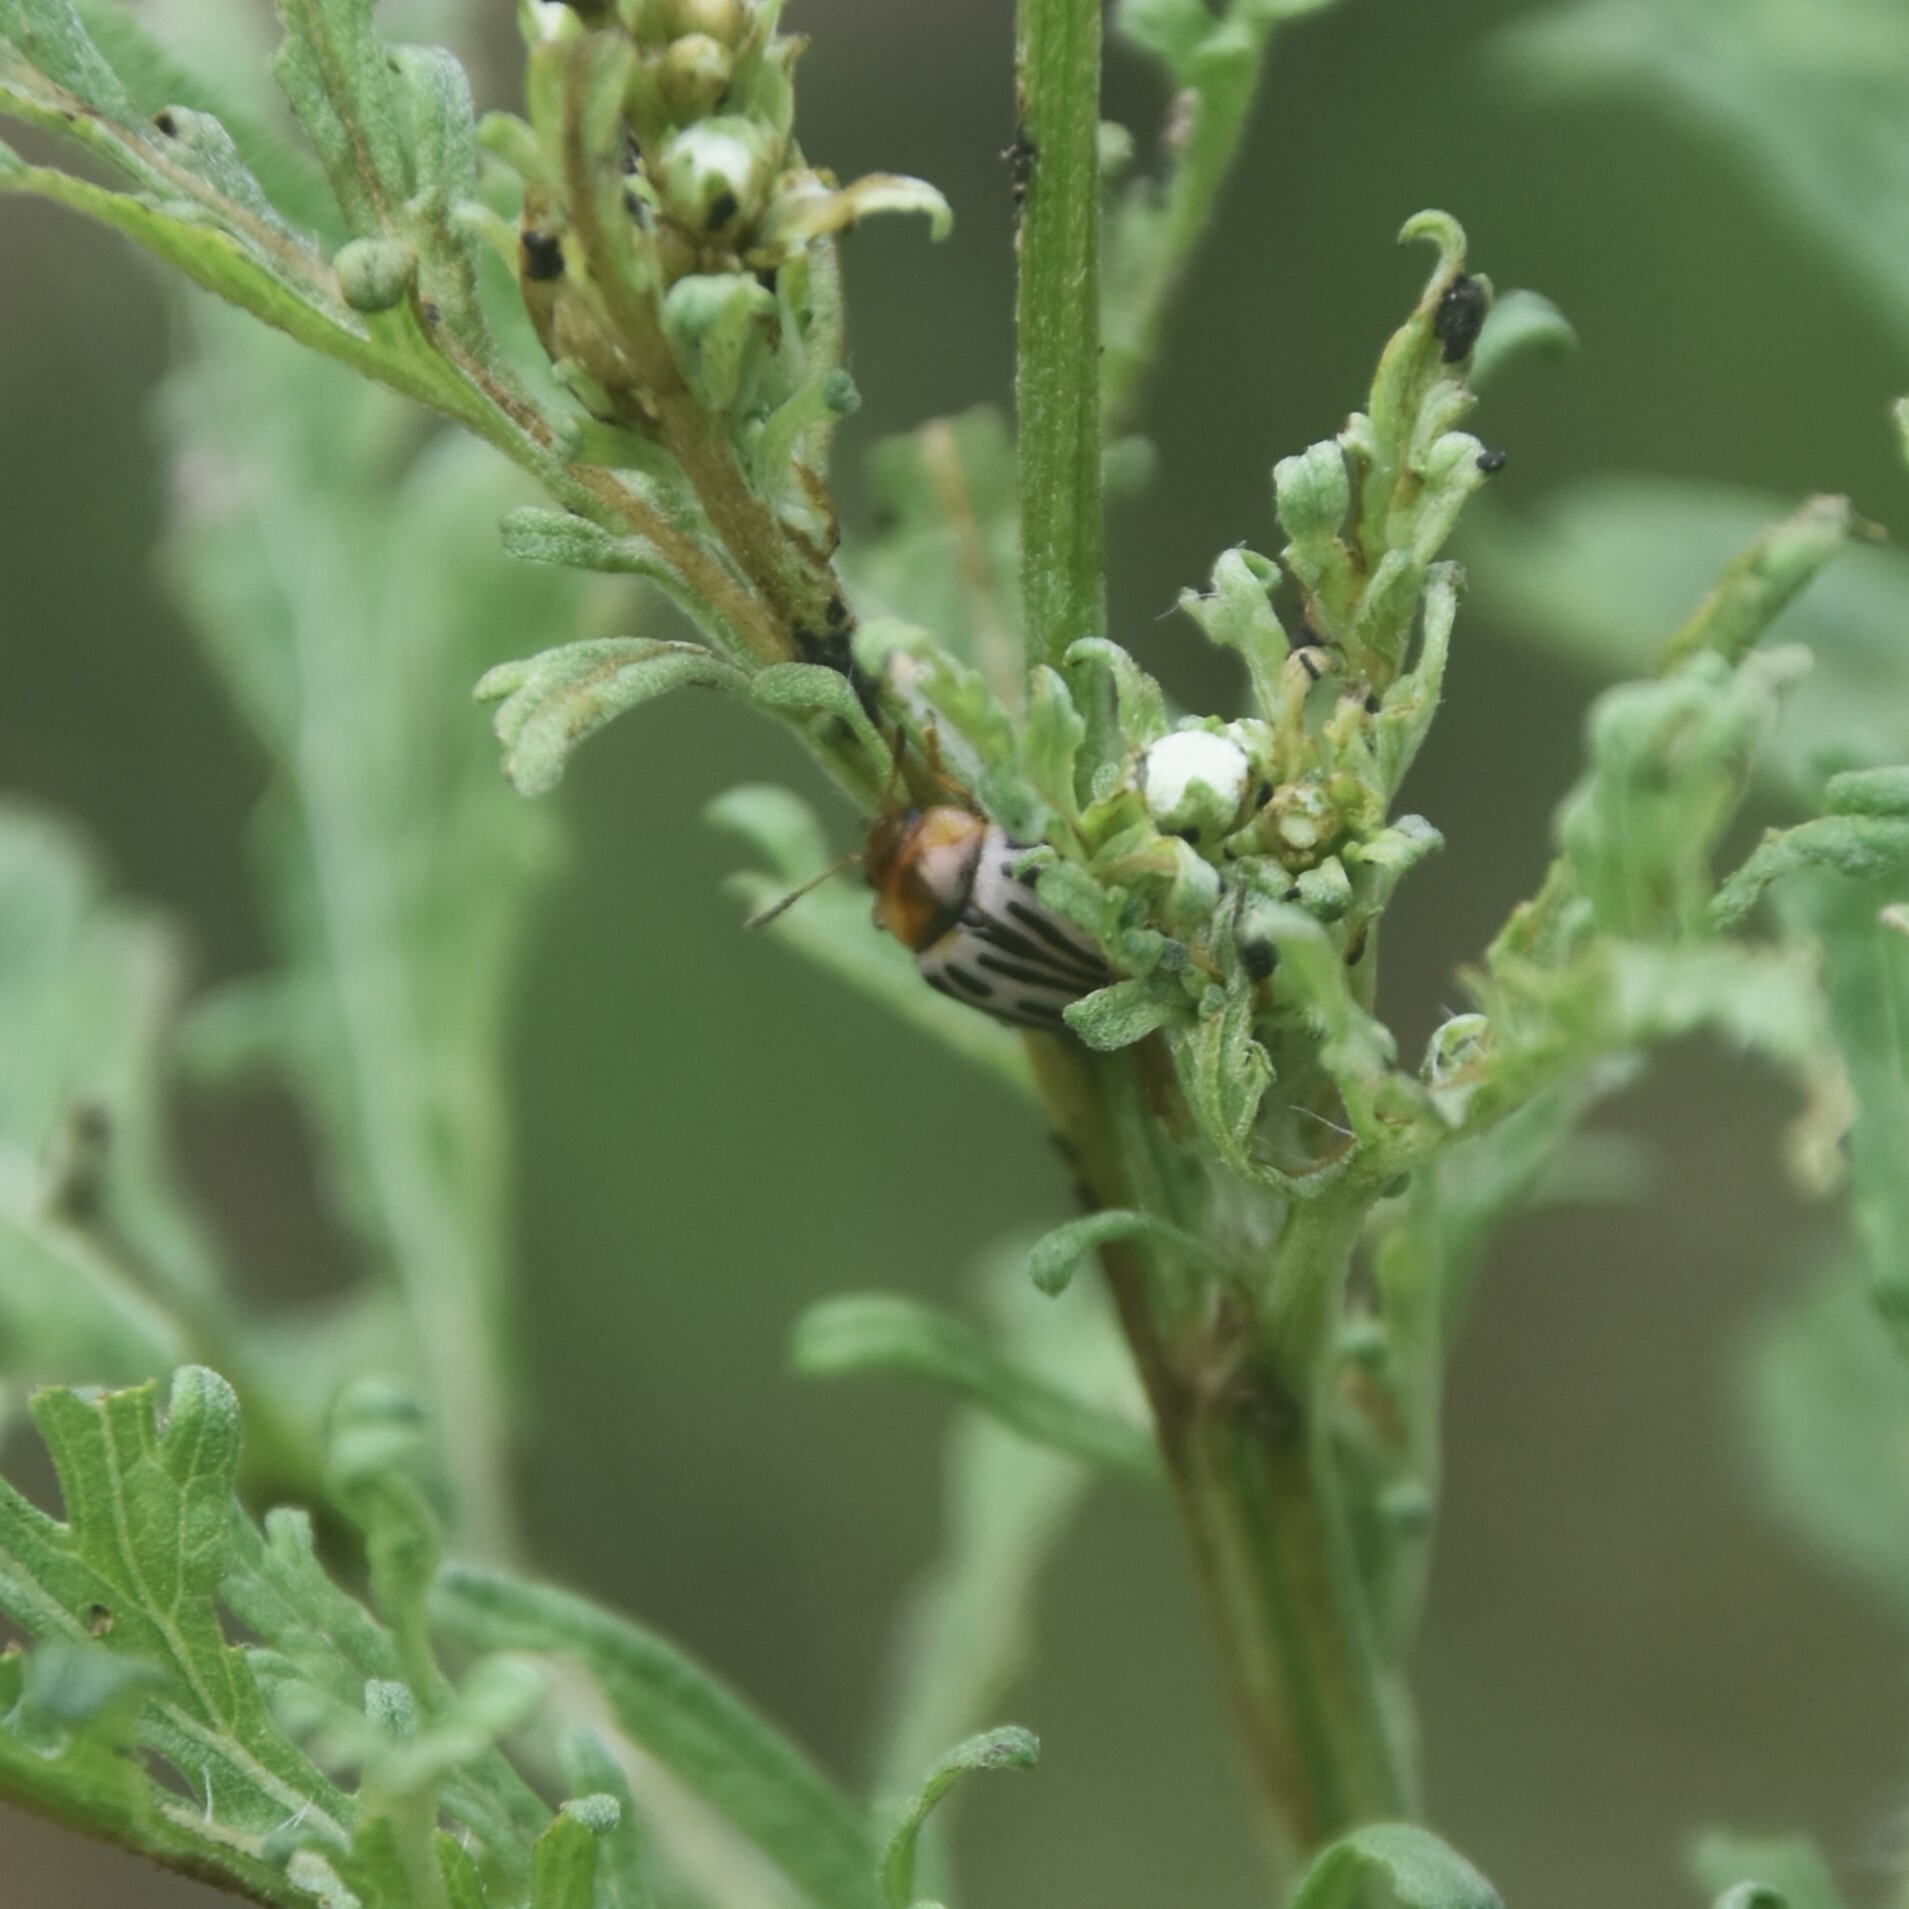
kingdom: Animalia
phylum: Arthropoda
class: Insecta
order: Coleoptera
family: Chrysomelidae
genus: Calligrapha
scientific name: Calligrapha
